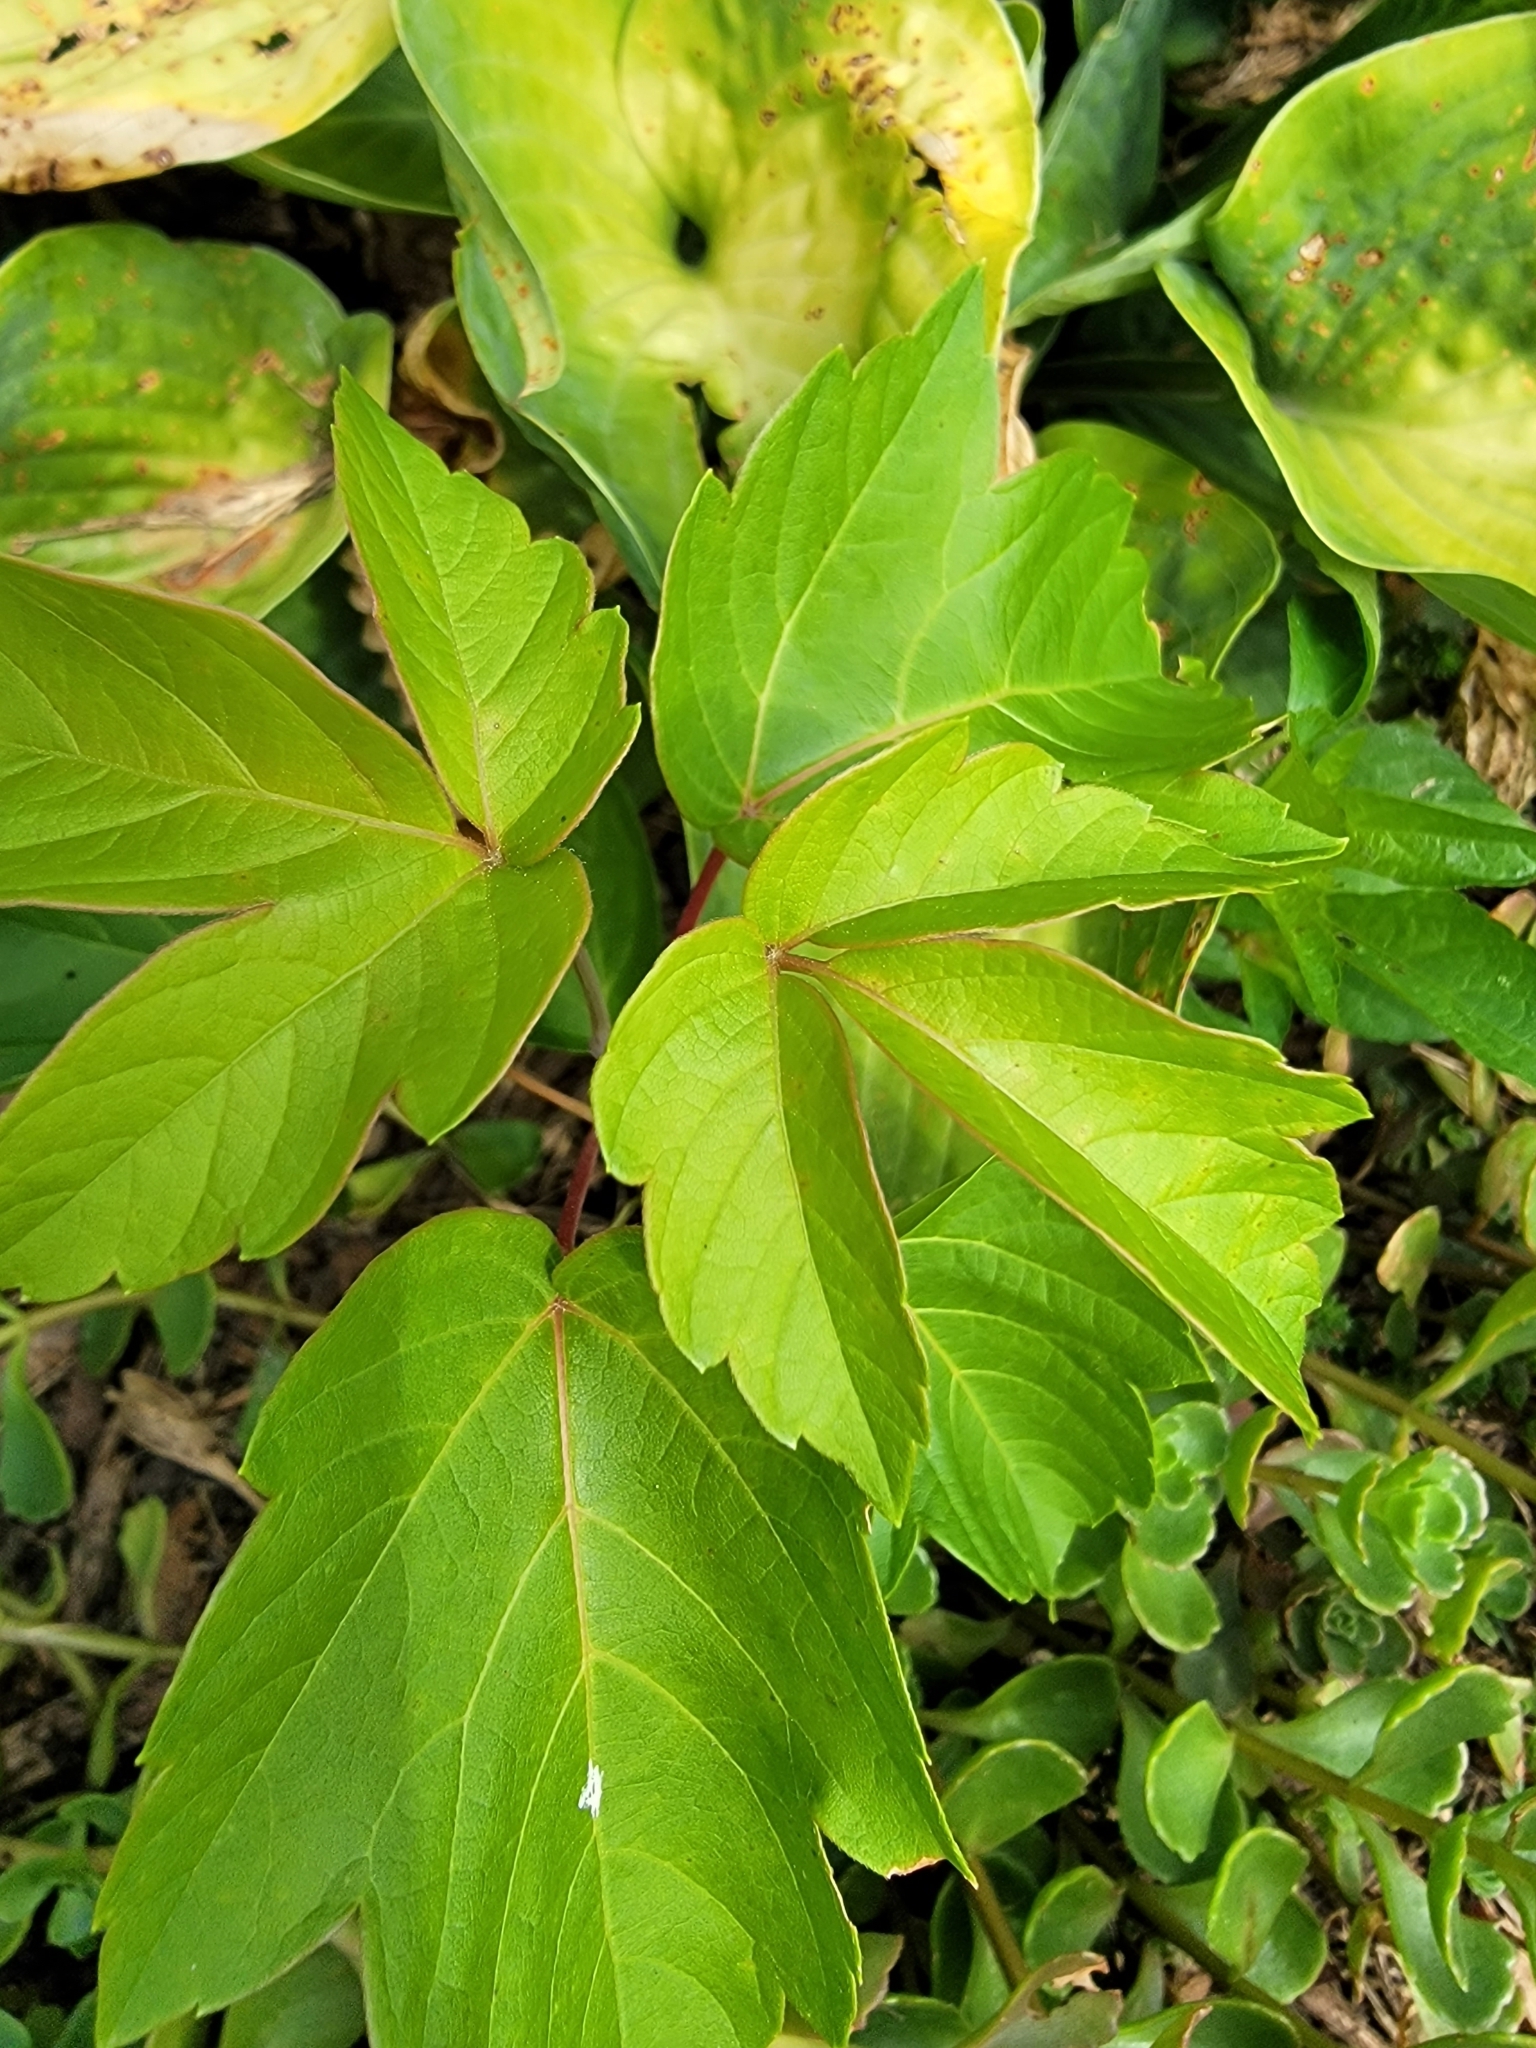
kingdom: Plantae
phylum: Tracheophyta
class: Magnoliopsida
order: Sapindales
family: Sapindaceae
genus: Acer
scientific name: Acer negundo
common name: Ashleaf maple
